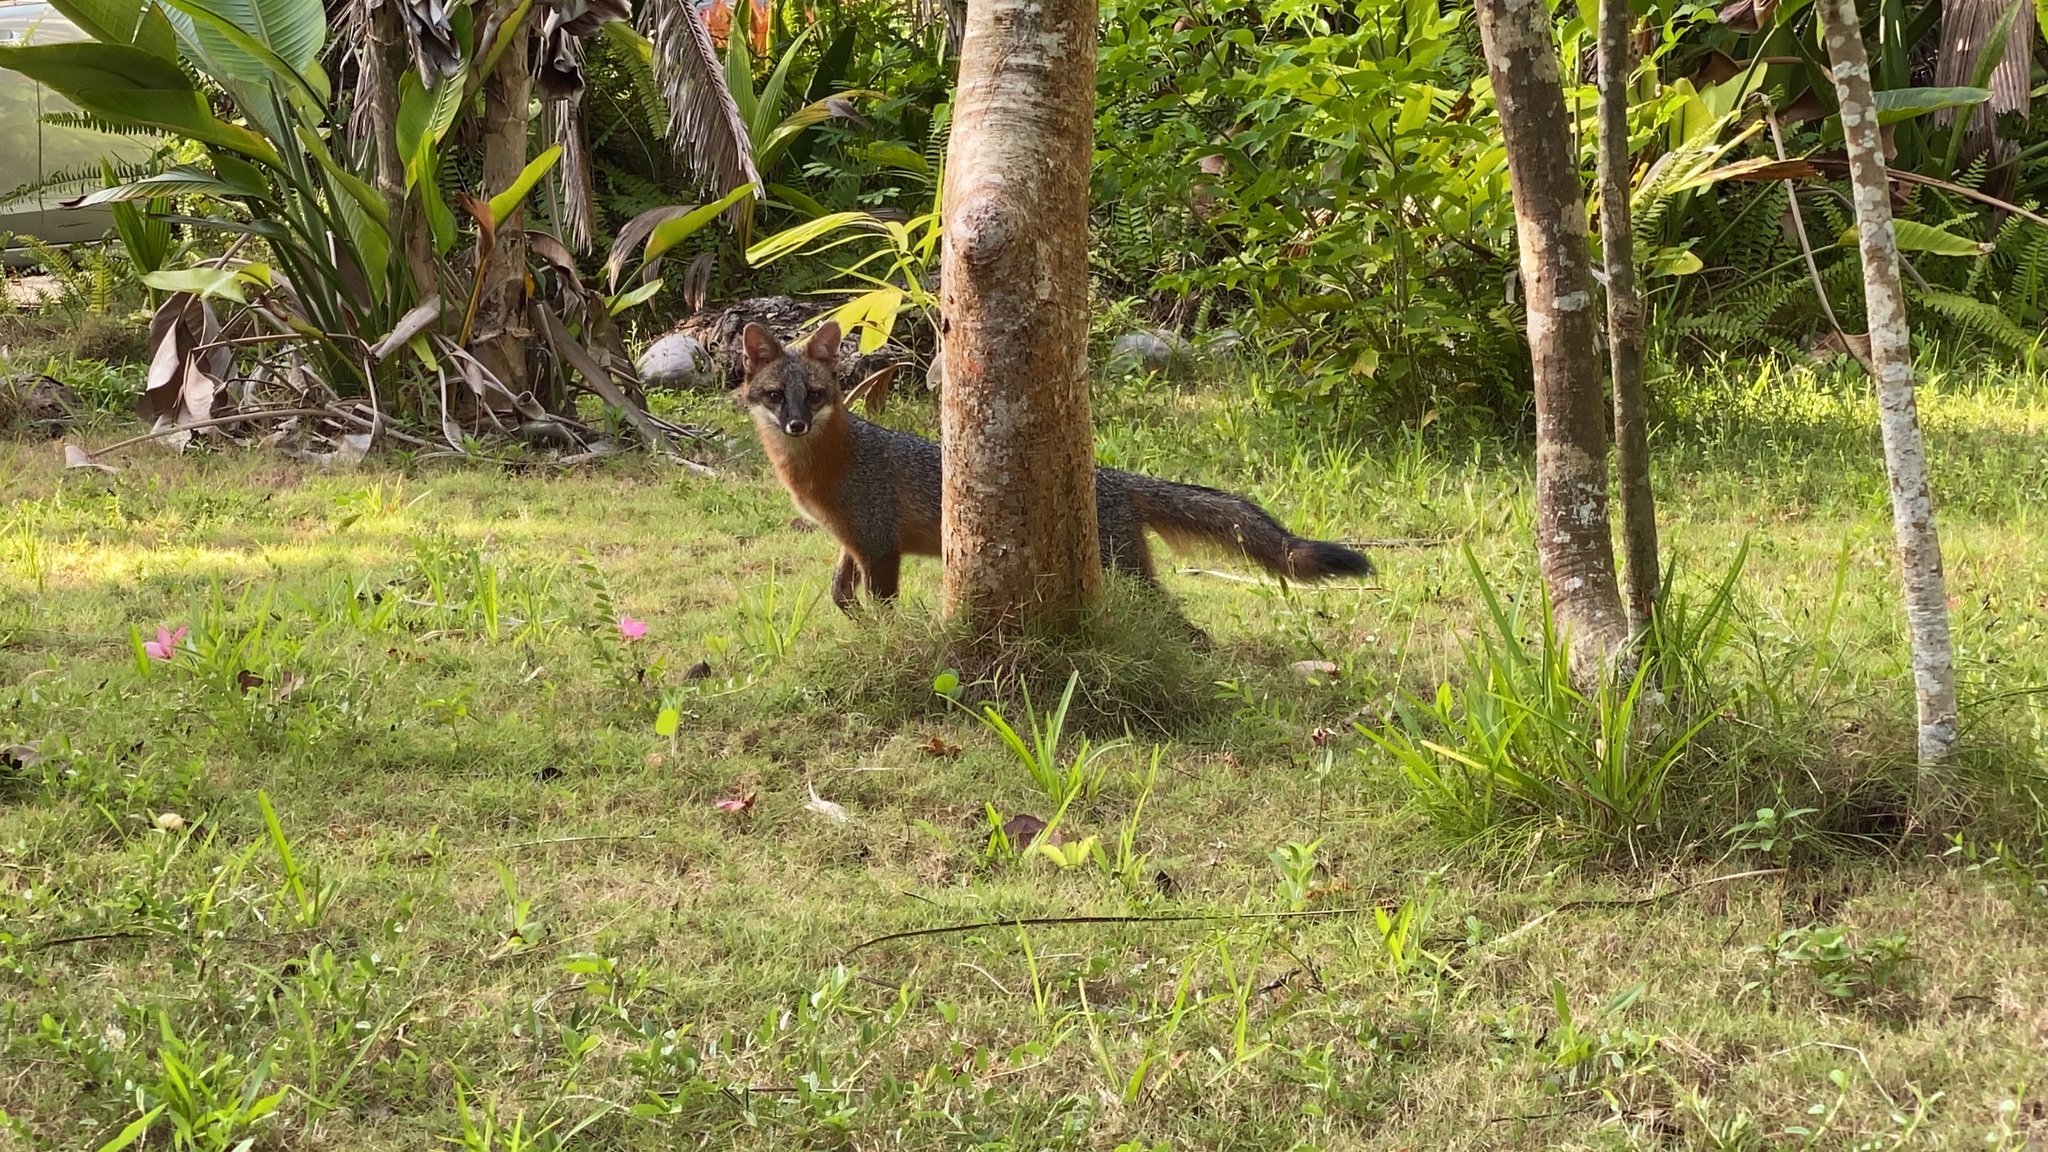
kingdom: Animalia
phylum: Chordata
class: Mammalia
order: Carnivora
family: Canidae
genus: Urocyon
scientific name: Urocyon cinereoargenteus
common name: Gray fox
